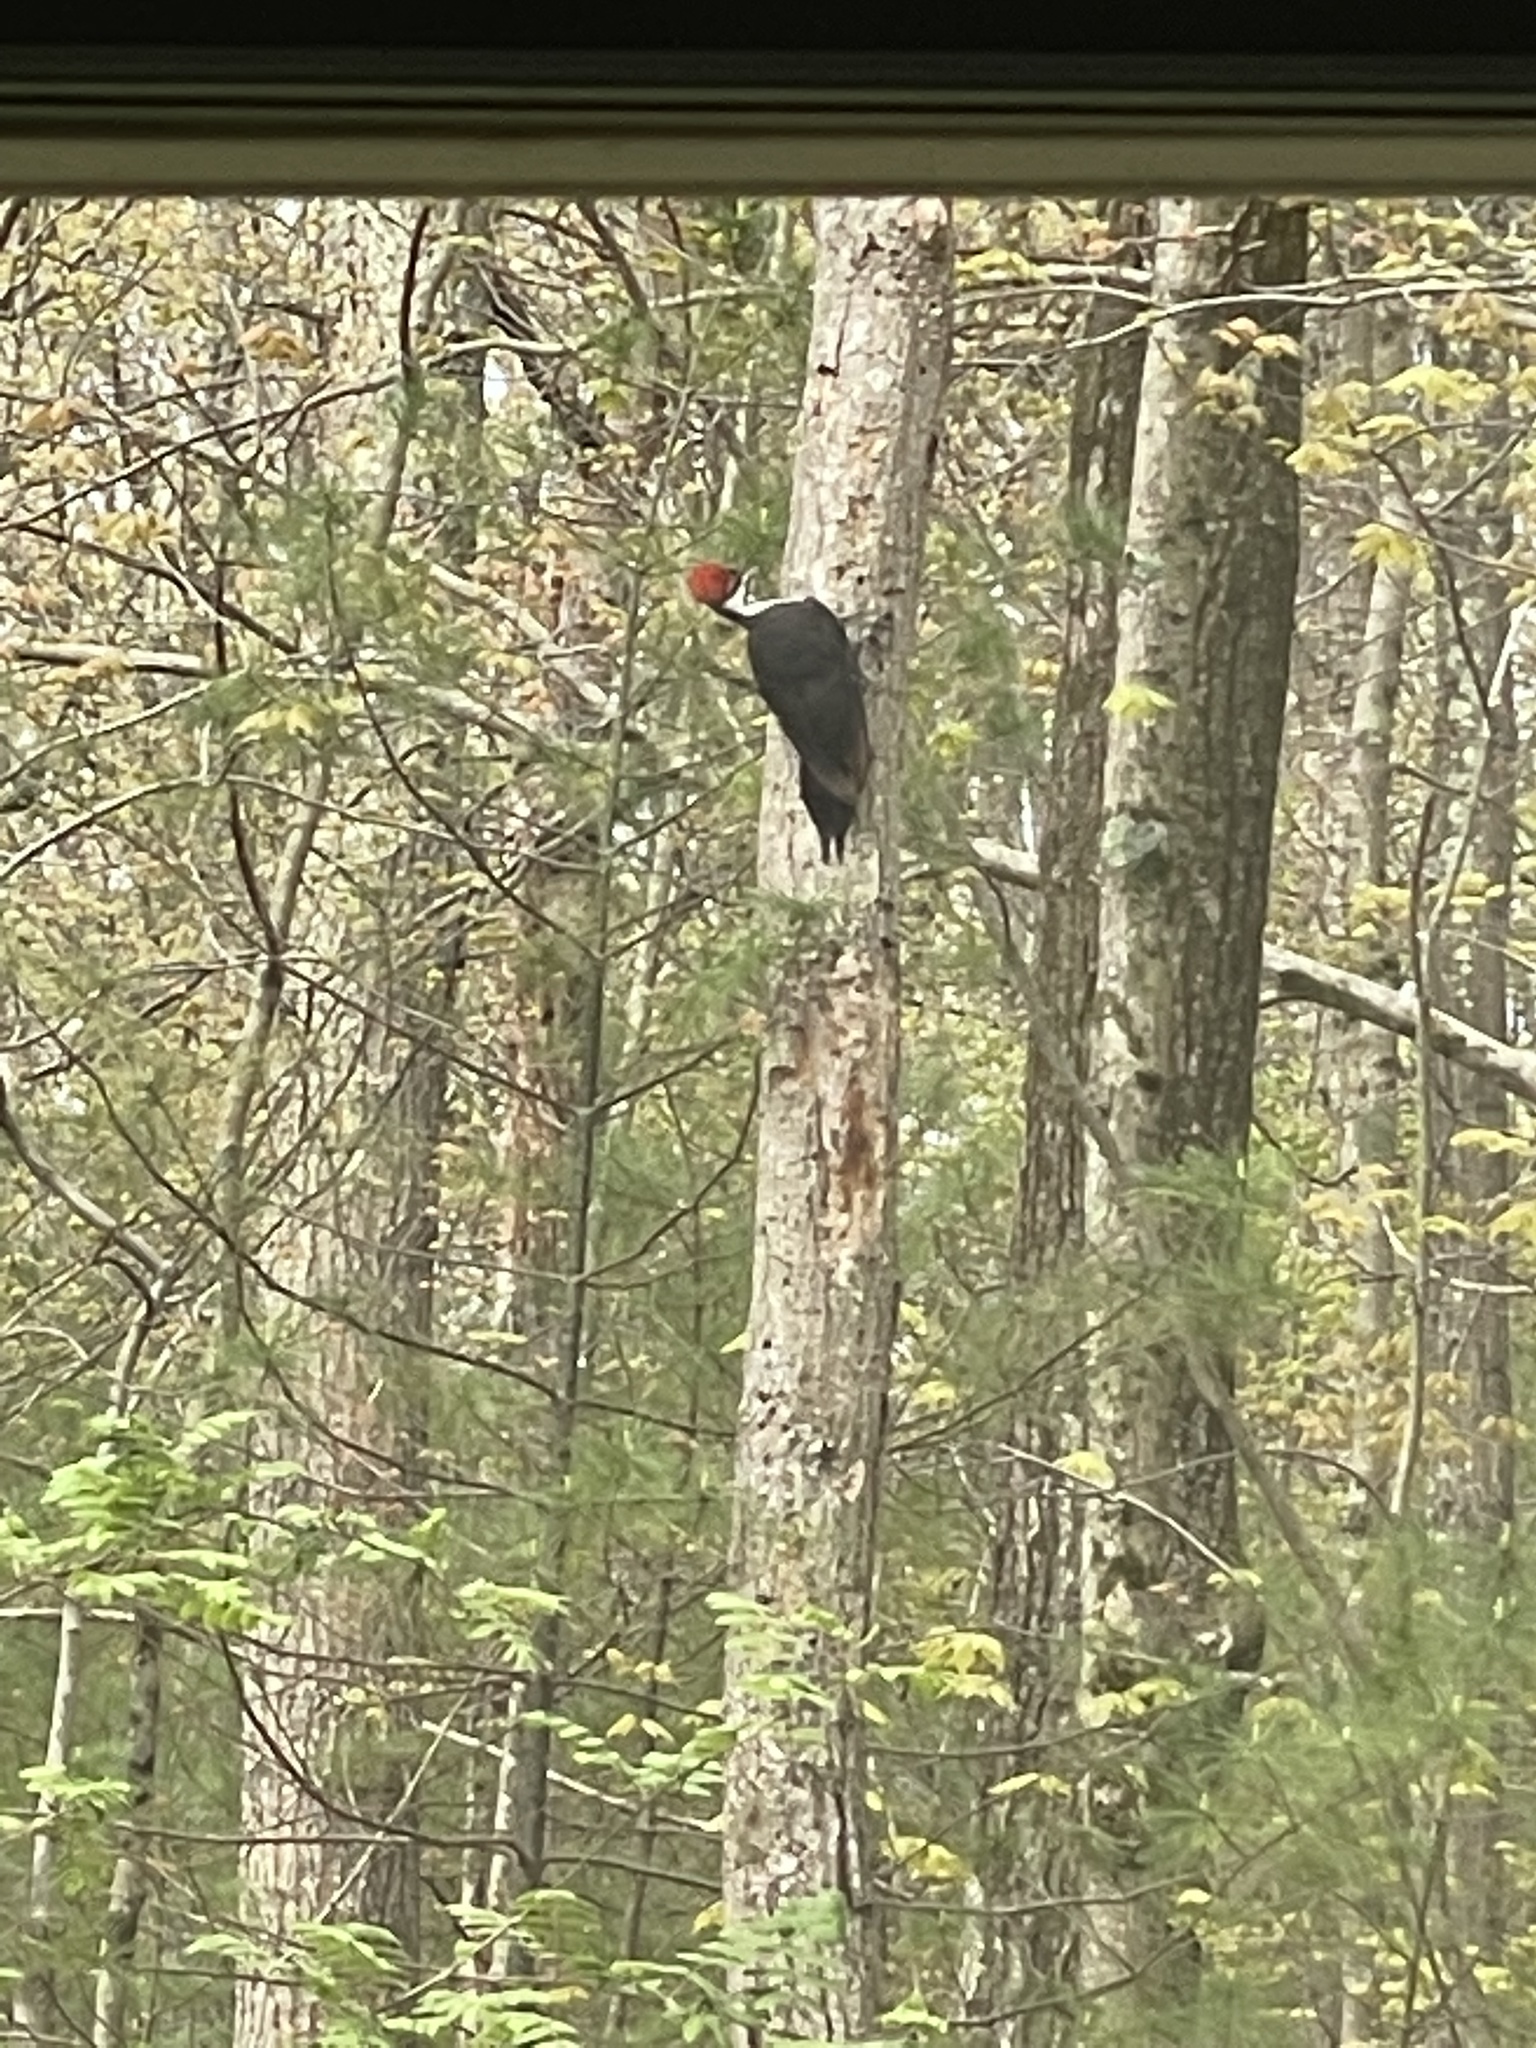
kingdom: Animalia
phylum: Chordata
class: Aves
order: Piciformes
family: Picidae
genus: Dryocopus
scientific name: Dryocopus pileatus
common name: Pileated woodpecker
